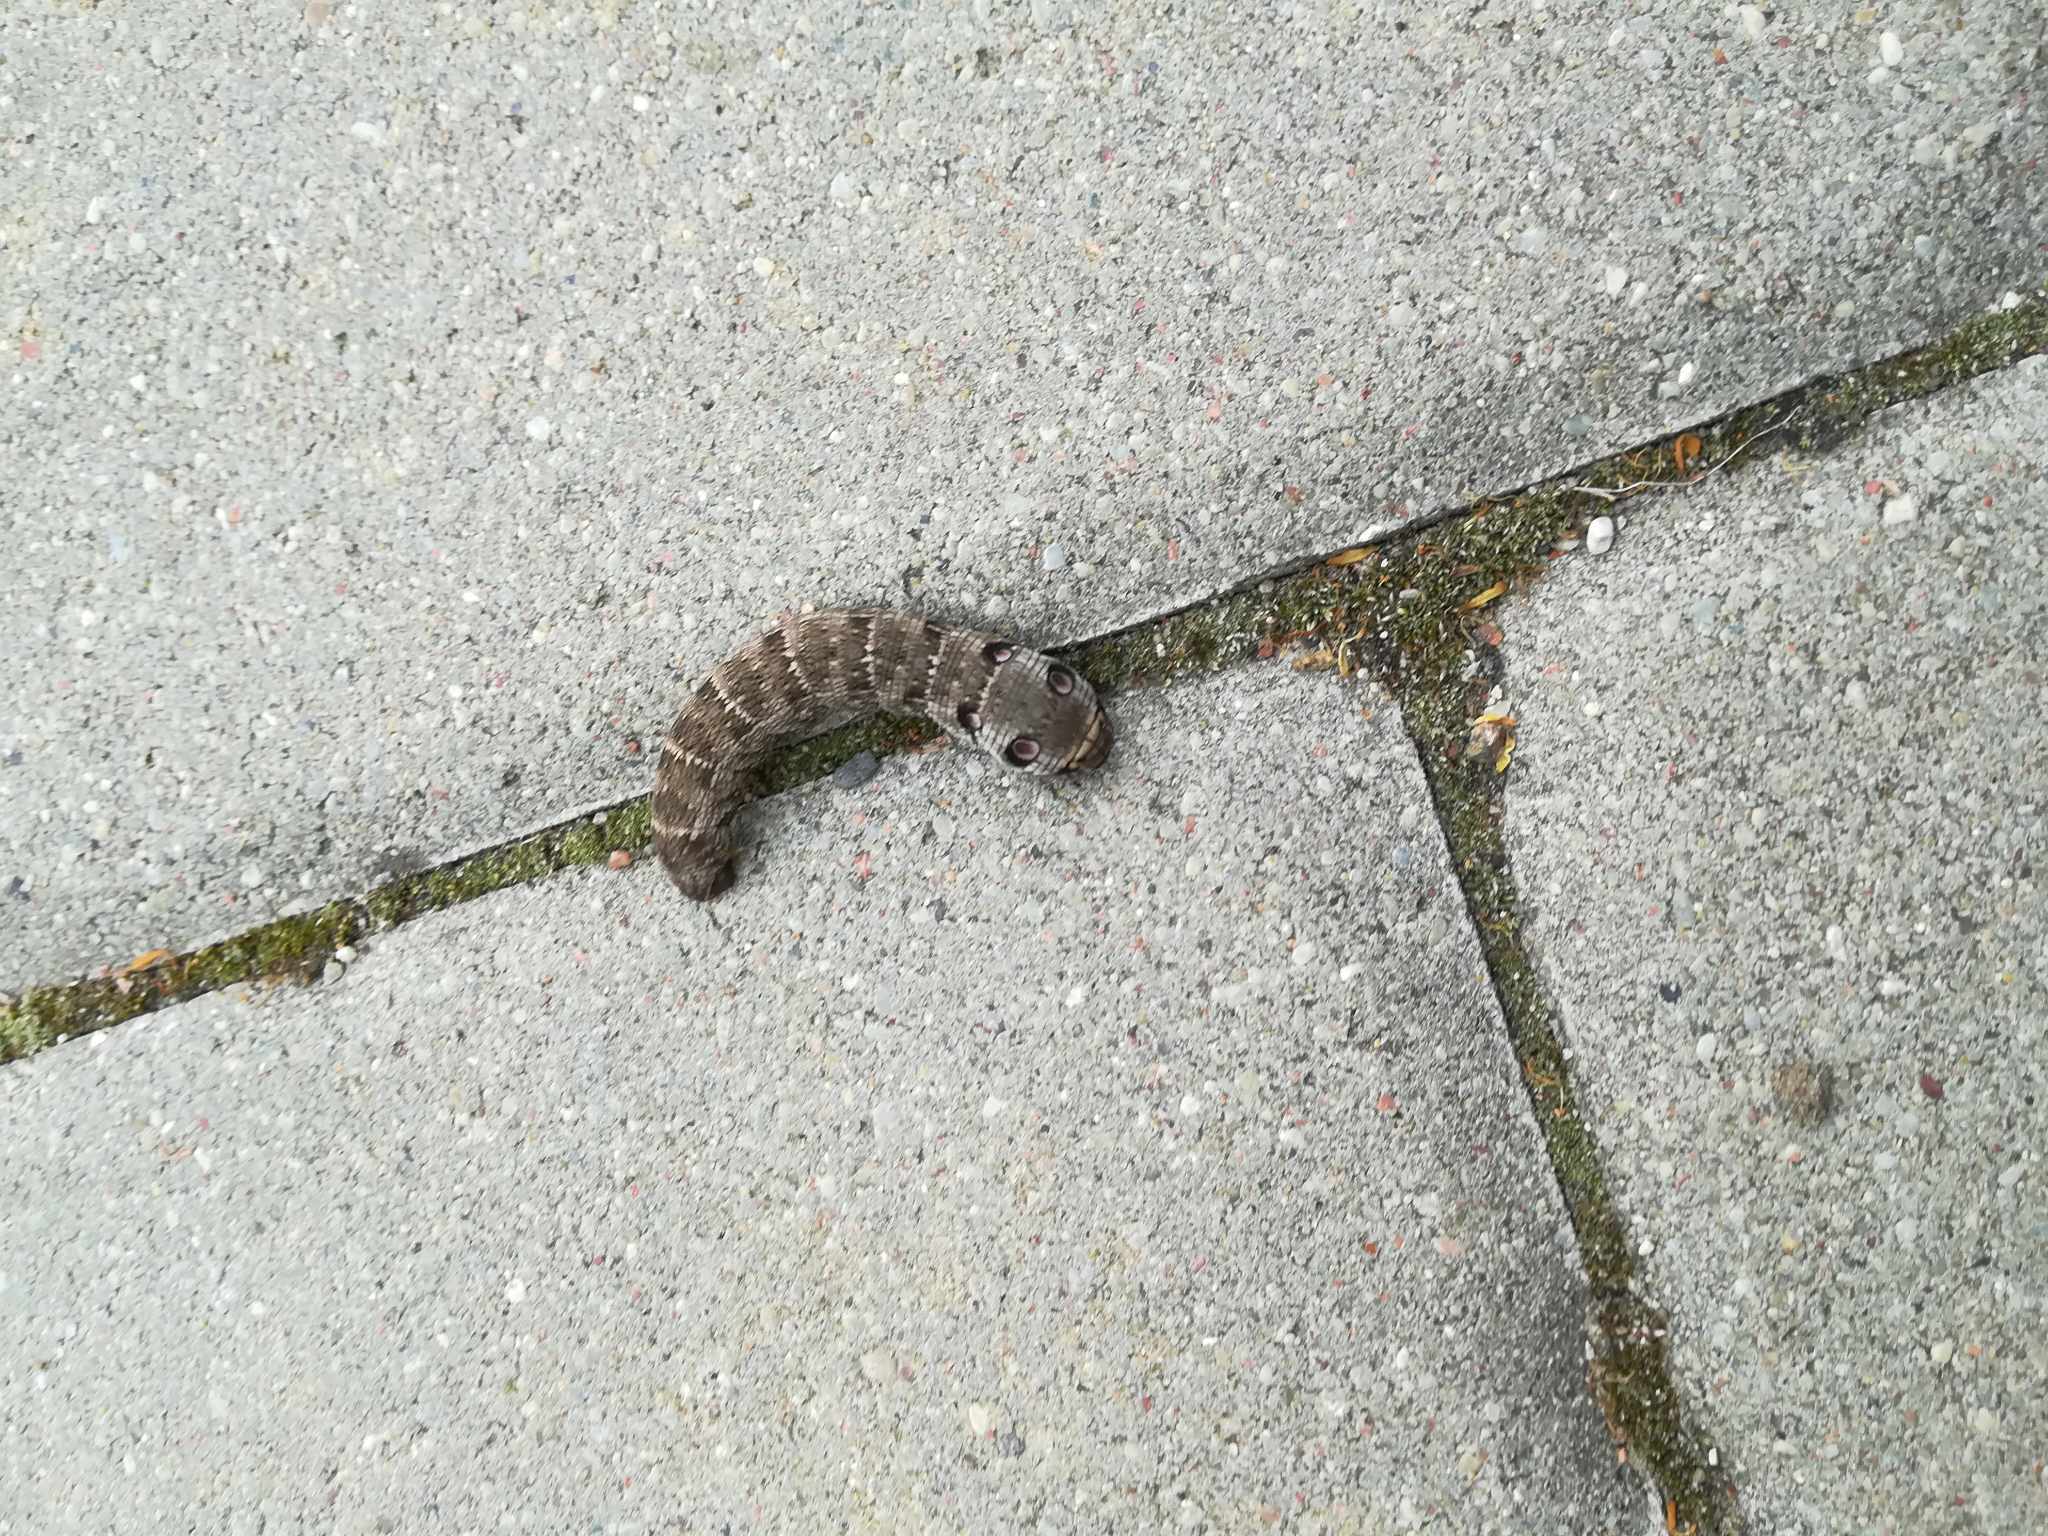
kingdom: Animalia
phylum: Arthropoda
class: Insecta
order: Lepidoptera
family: Sphingidae
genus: Deilephila
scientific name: Deilephila porcellus
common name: Small elephant hawk-moth
